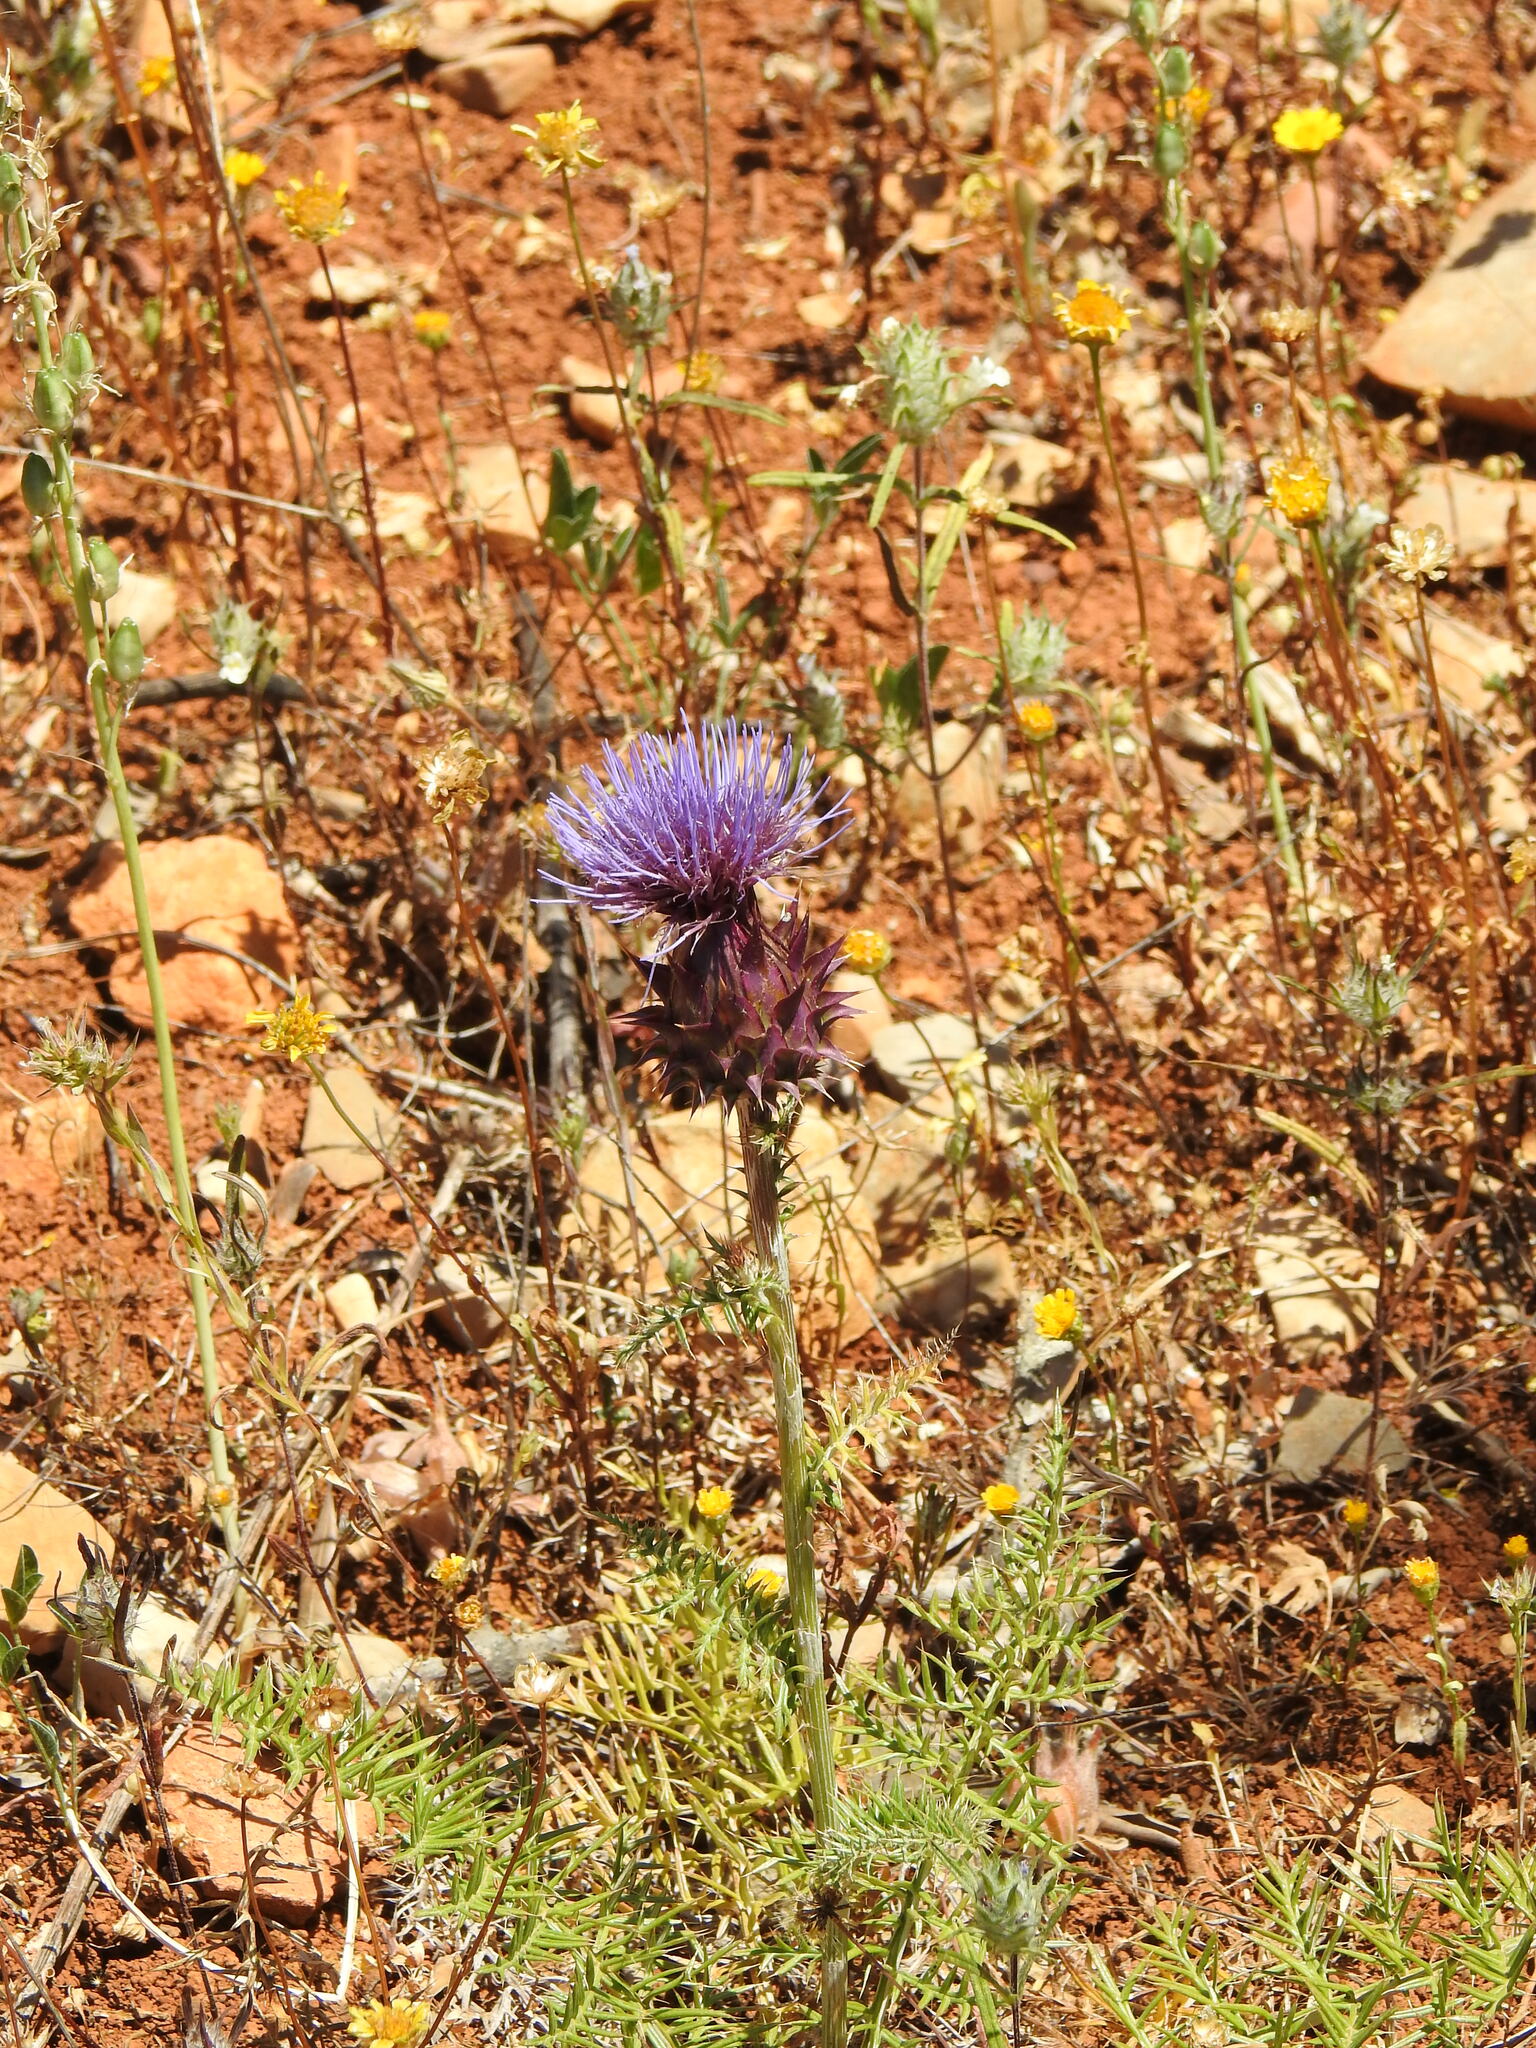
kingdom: Plantae
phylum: Tracheophyta
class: Magnoliopsida
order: Asterales
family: Asteraceae
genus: Cynara
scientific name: Cynara humilis
